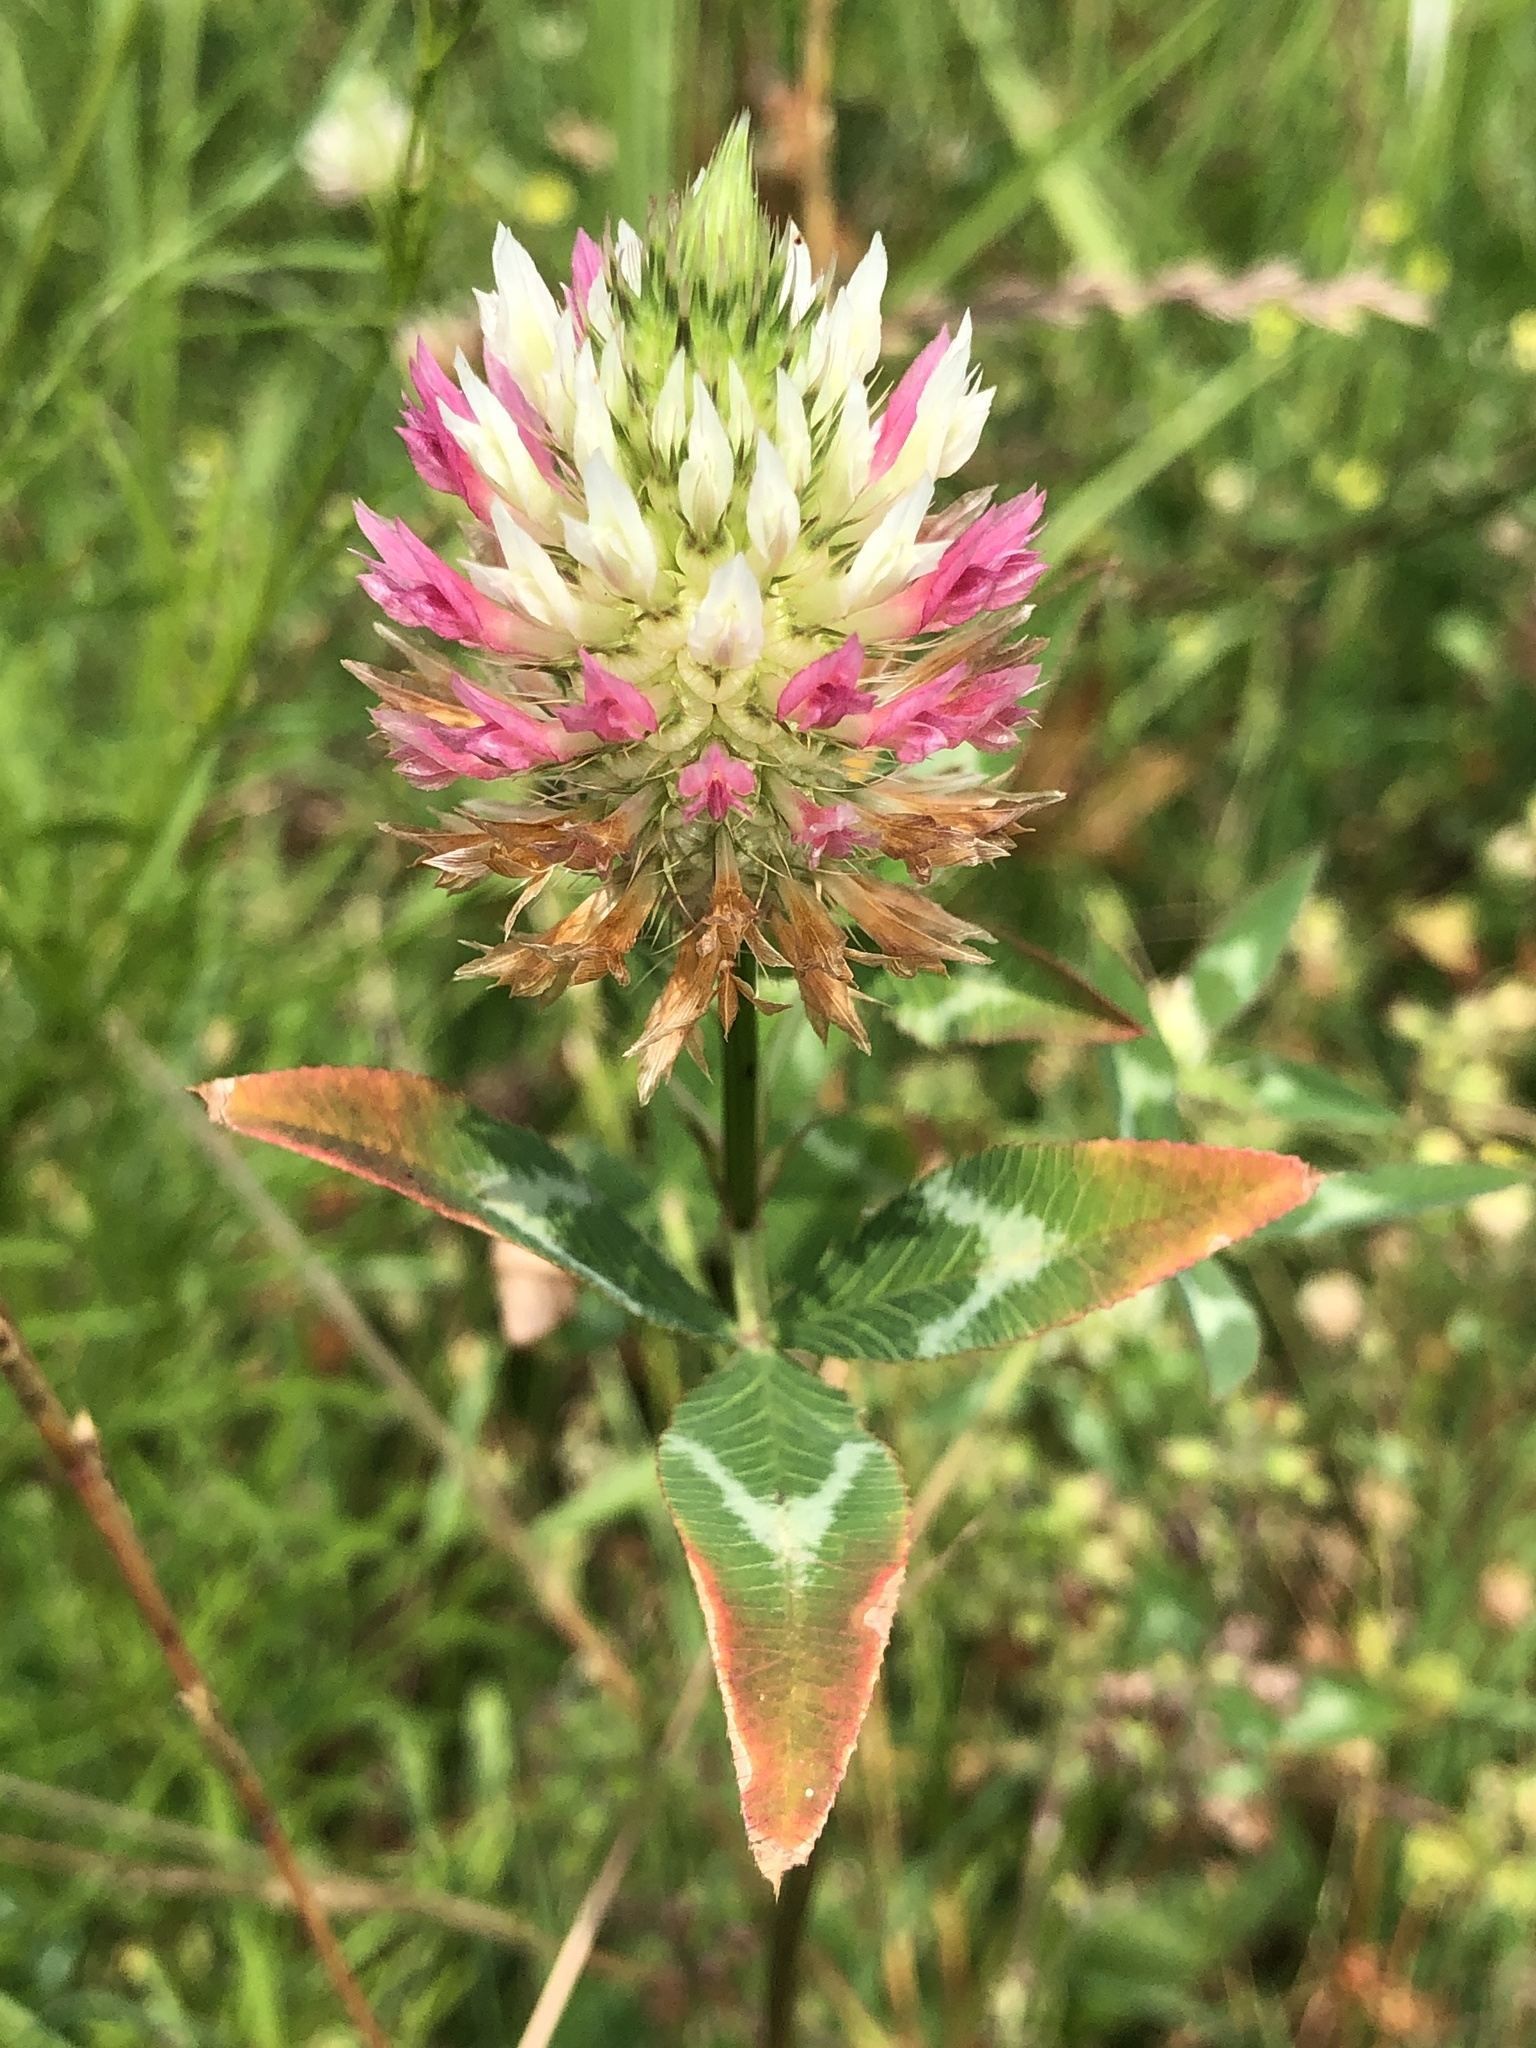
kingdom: Plantae
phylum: Tracheophyta
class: Magnoliopsida
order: Fabales
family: Fabaceae
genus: Trifolium
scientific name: Trifolium vesiculosum
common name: Arrowleaf clover
